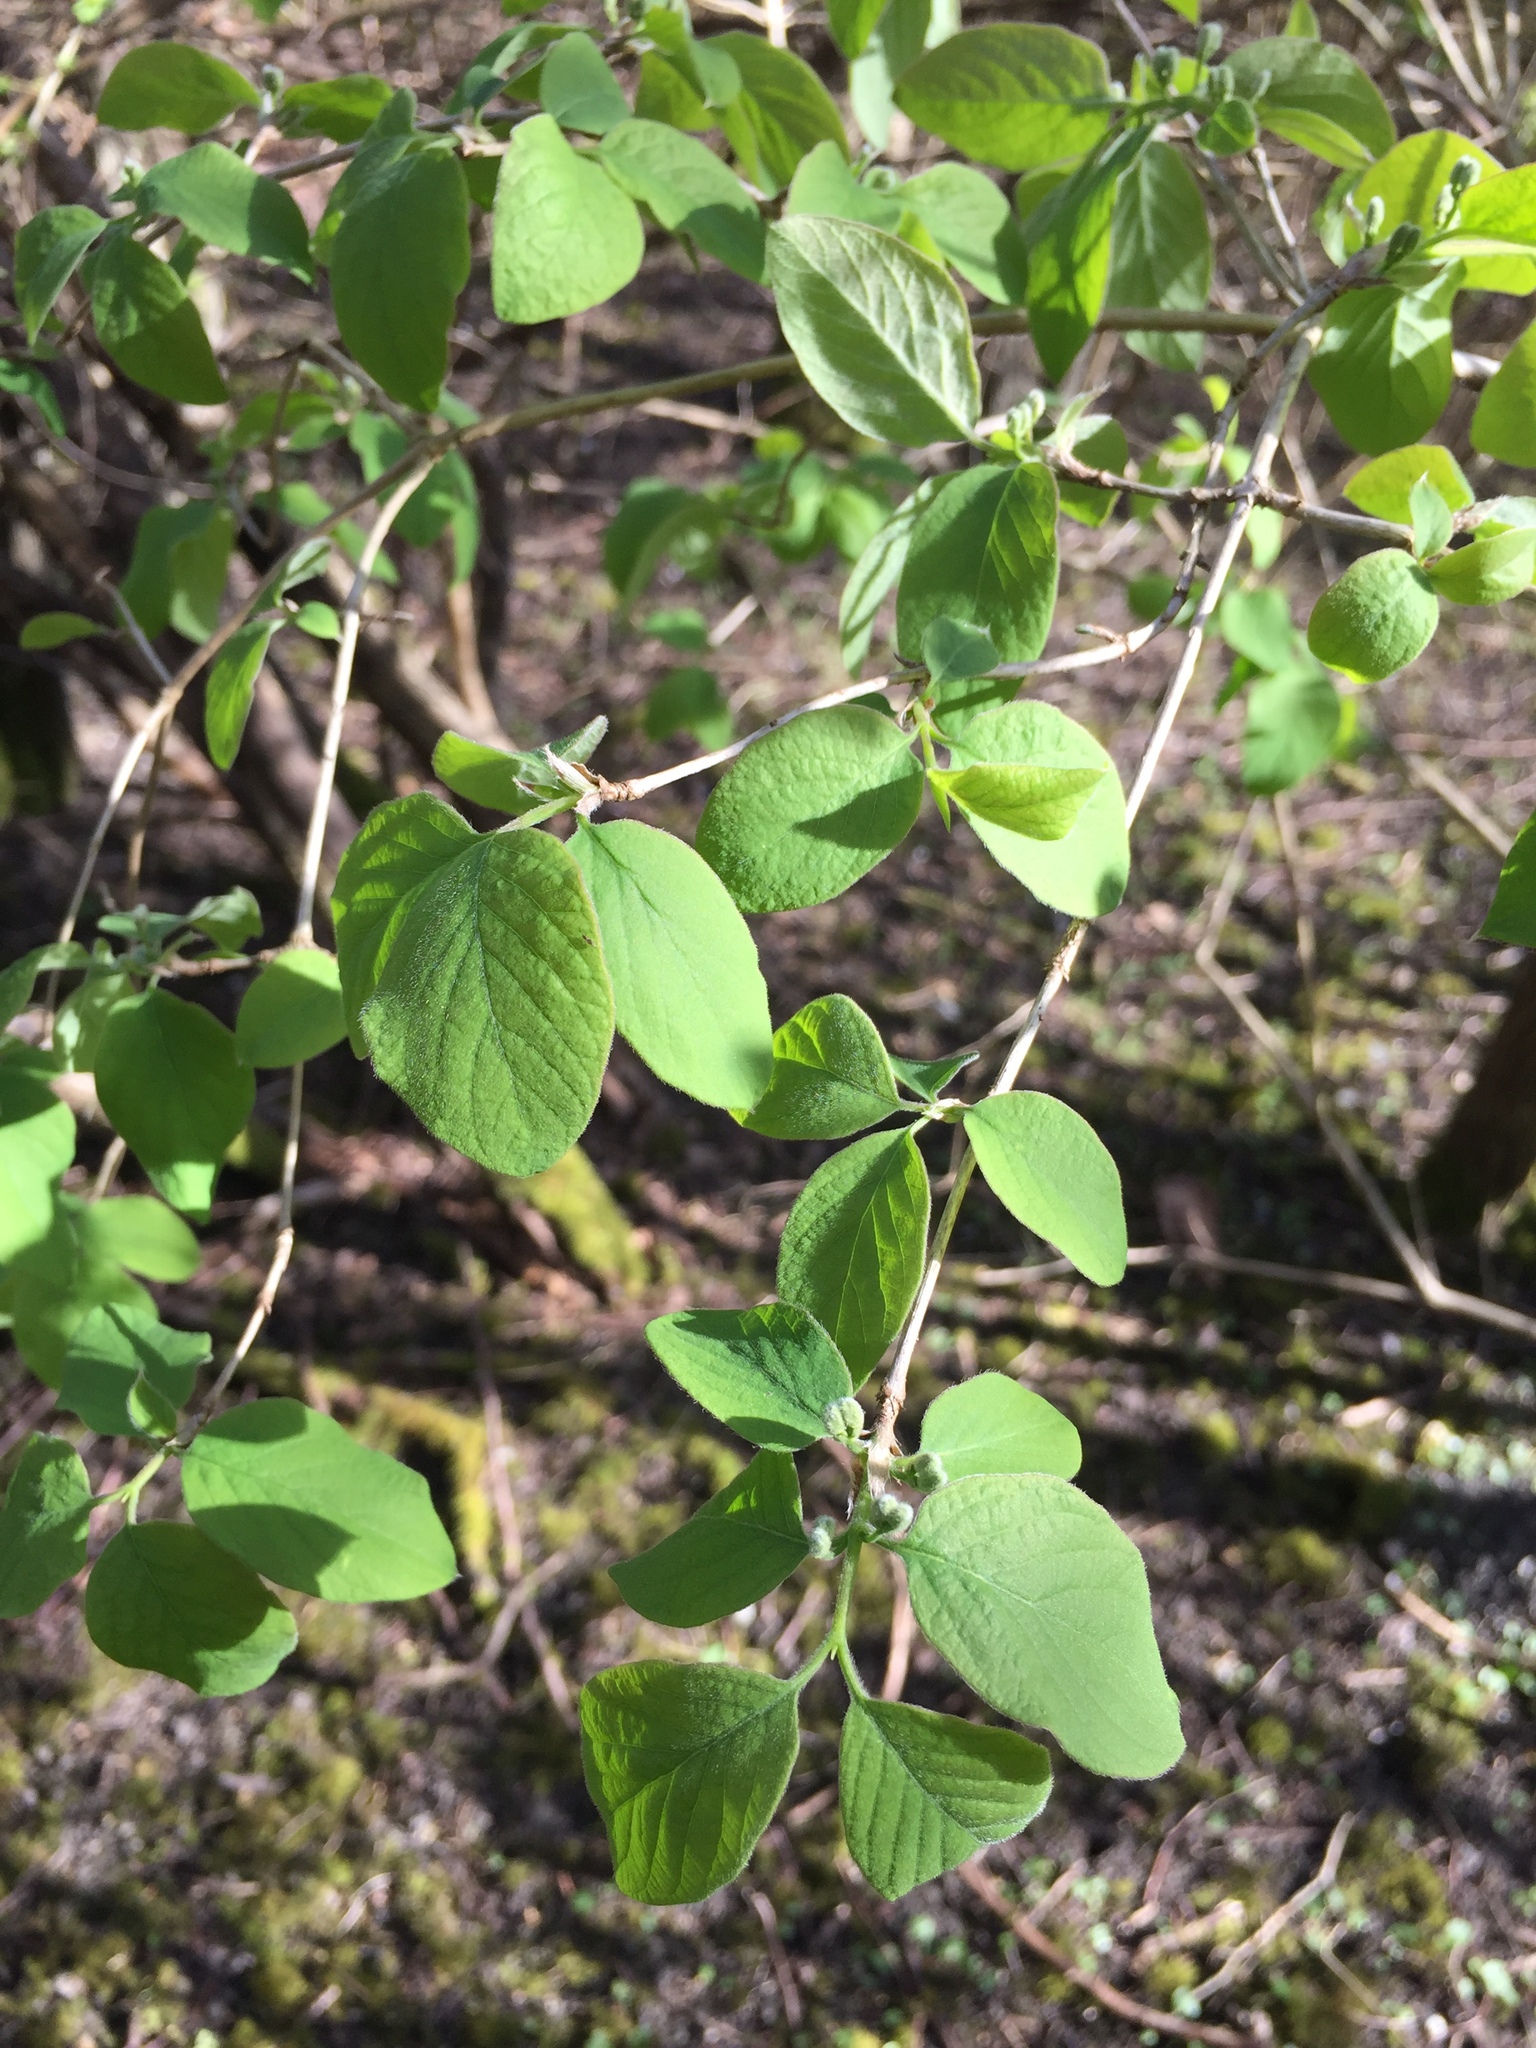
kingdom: Plantae
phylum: Tracheophyta
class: Magnoliopsida
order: Dipsacales
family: Caprifoliaceae
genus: Lonicera
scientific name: Lonicera xylosteum
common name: Fly honeysuckle
